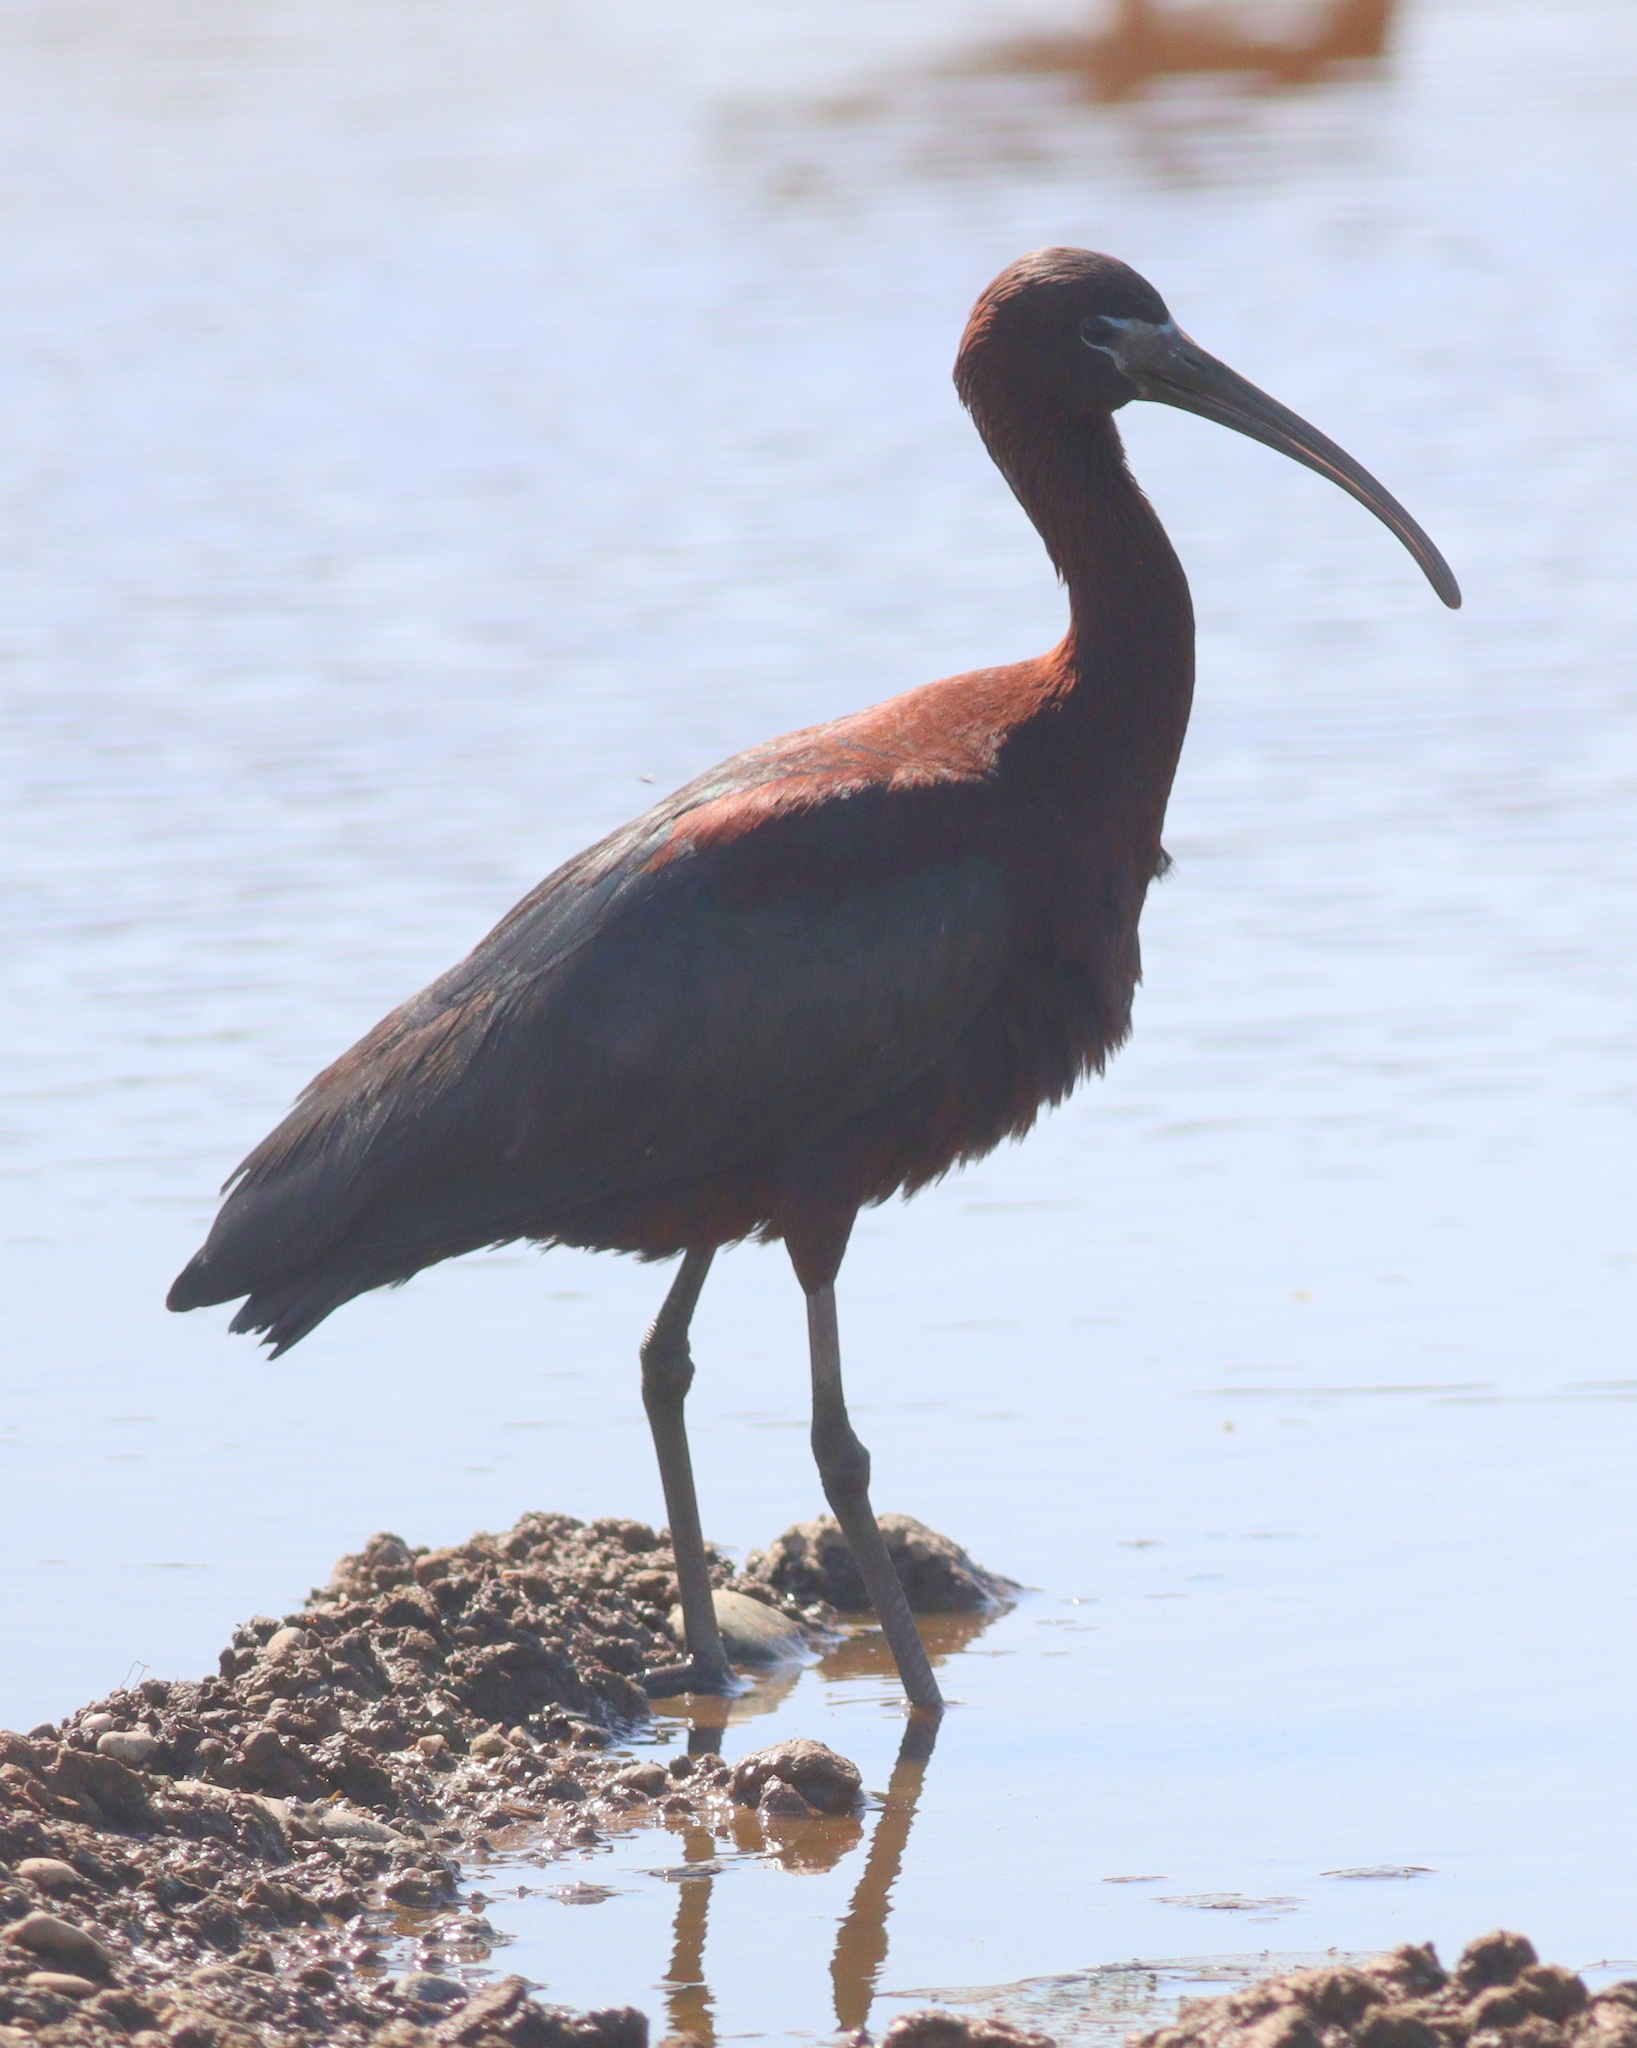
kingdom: Animalia
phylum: Chordata
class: Aves
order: Pelecaniformes
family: Threskiornithidae
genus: Plegadis
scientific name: Plegadis falcinellus
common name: Glossy ibis
